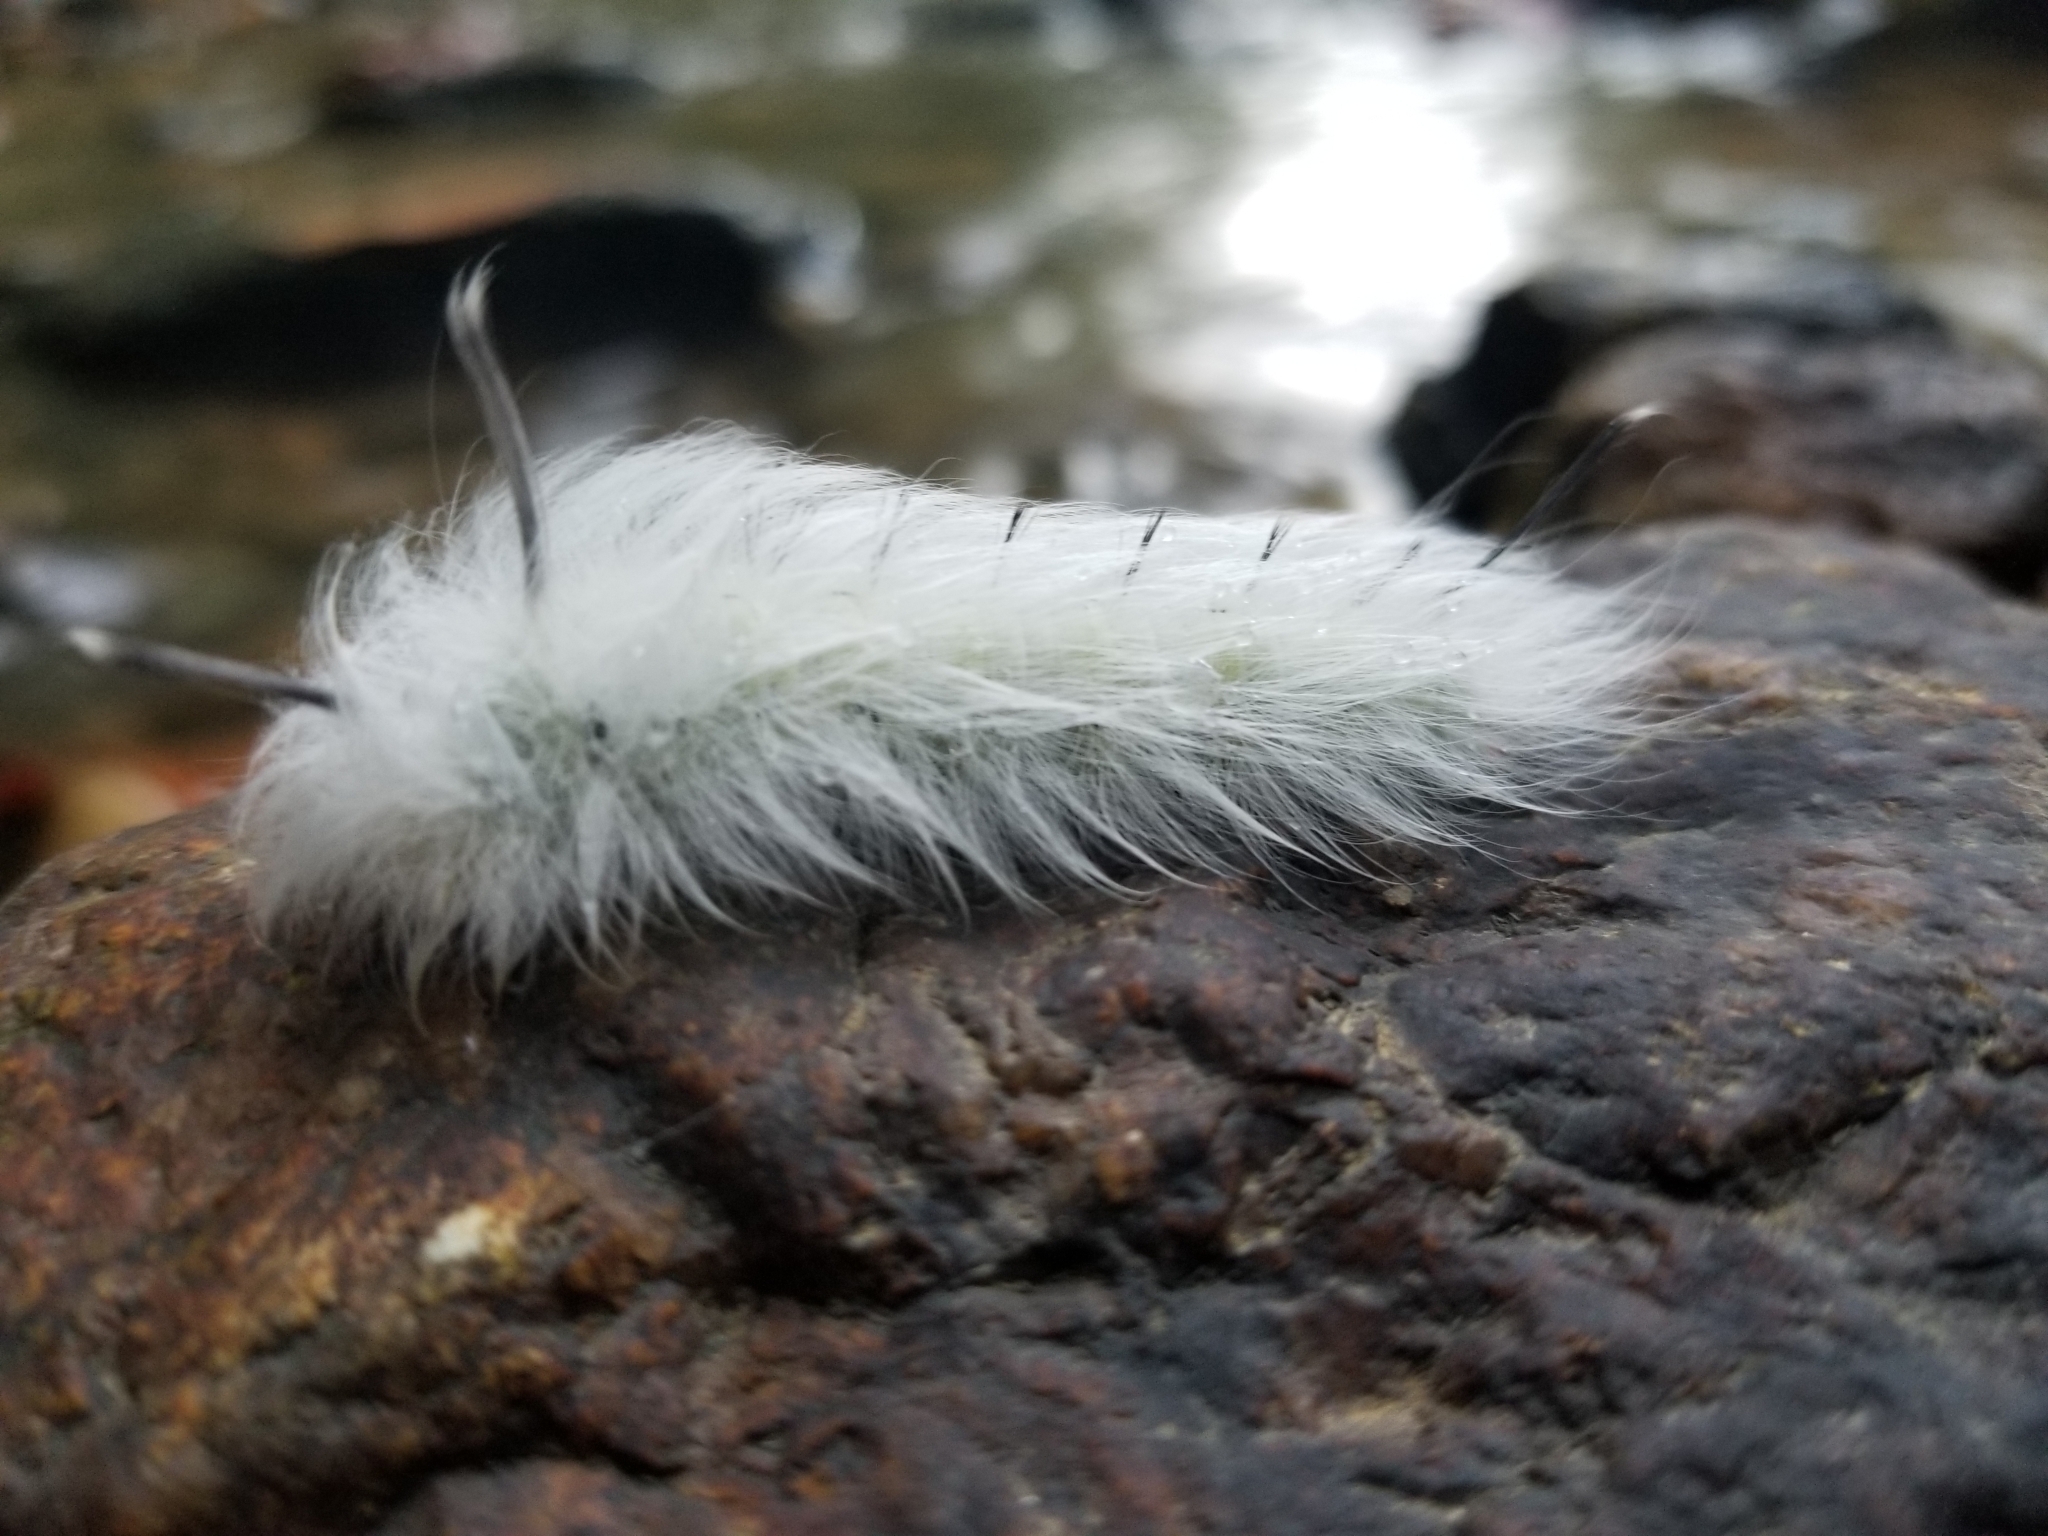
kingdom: Animalia
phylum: Arthropoda
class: Insecta
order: Lepidoptera
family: Apatelodidae
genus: Hygrochroa
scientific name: Hygrochroa Apatelodes torrefacta
